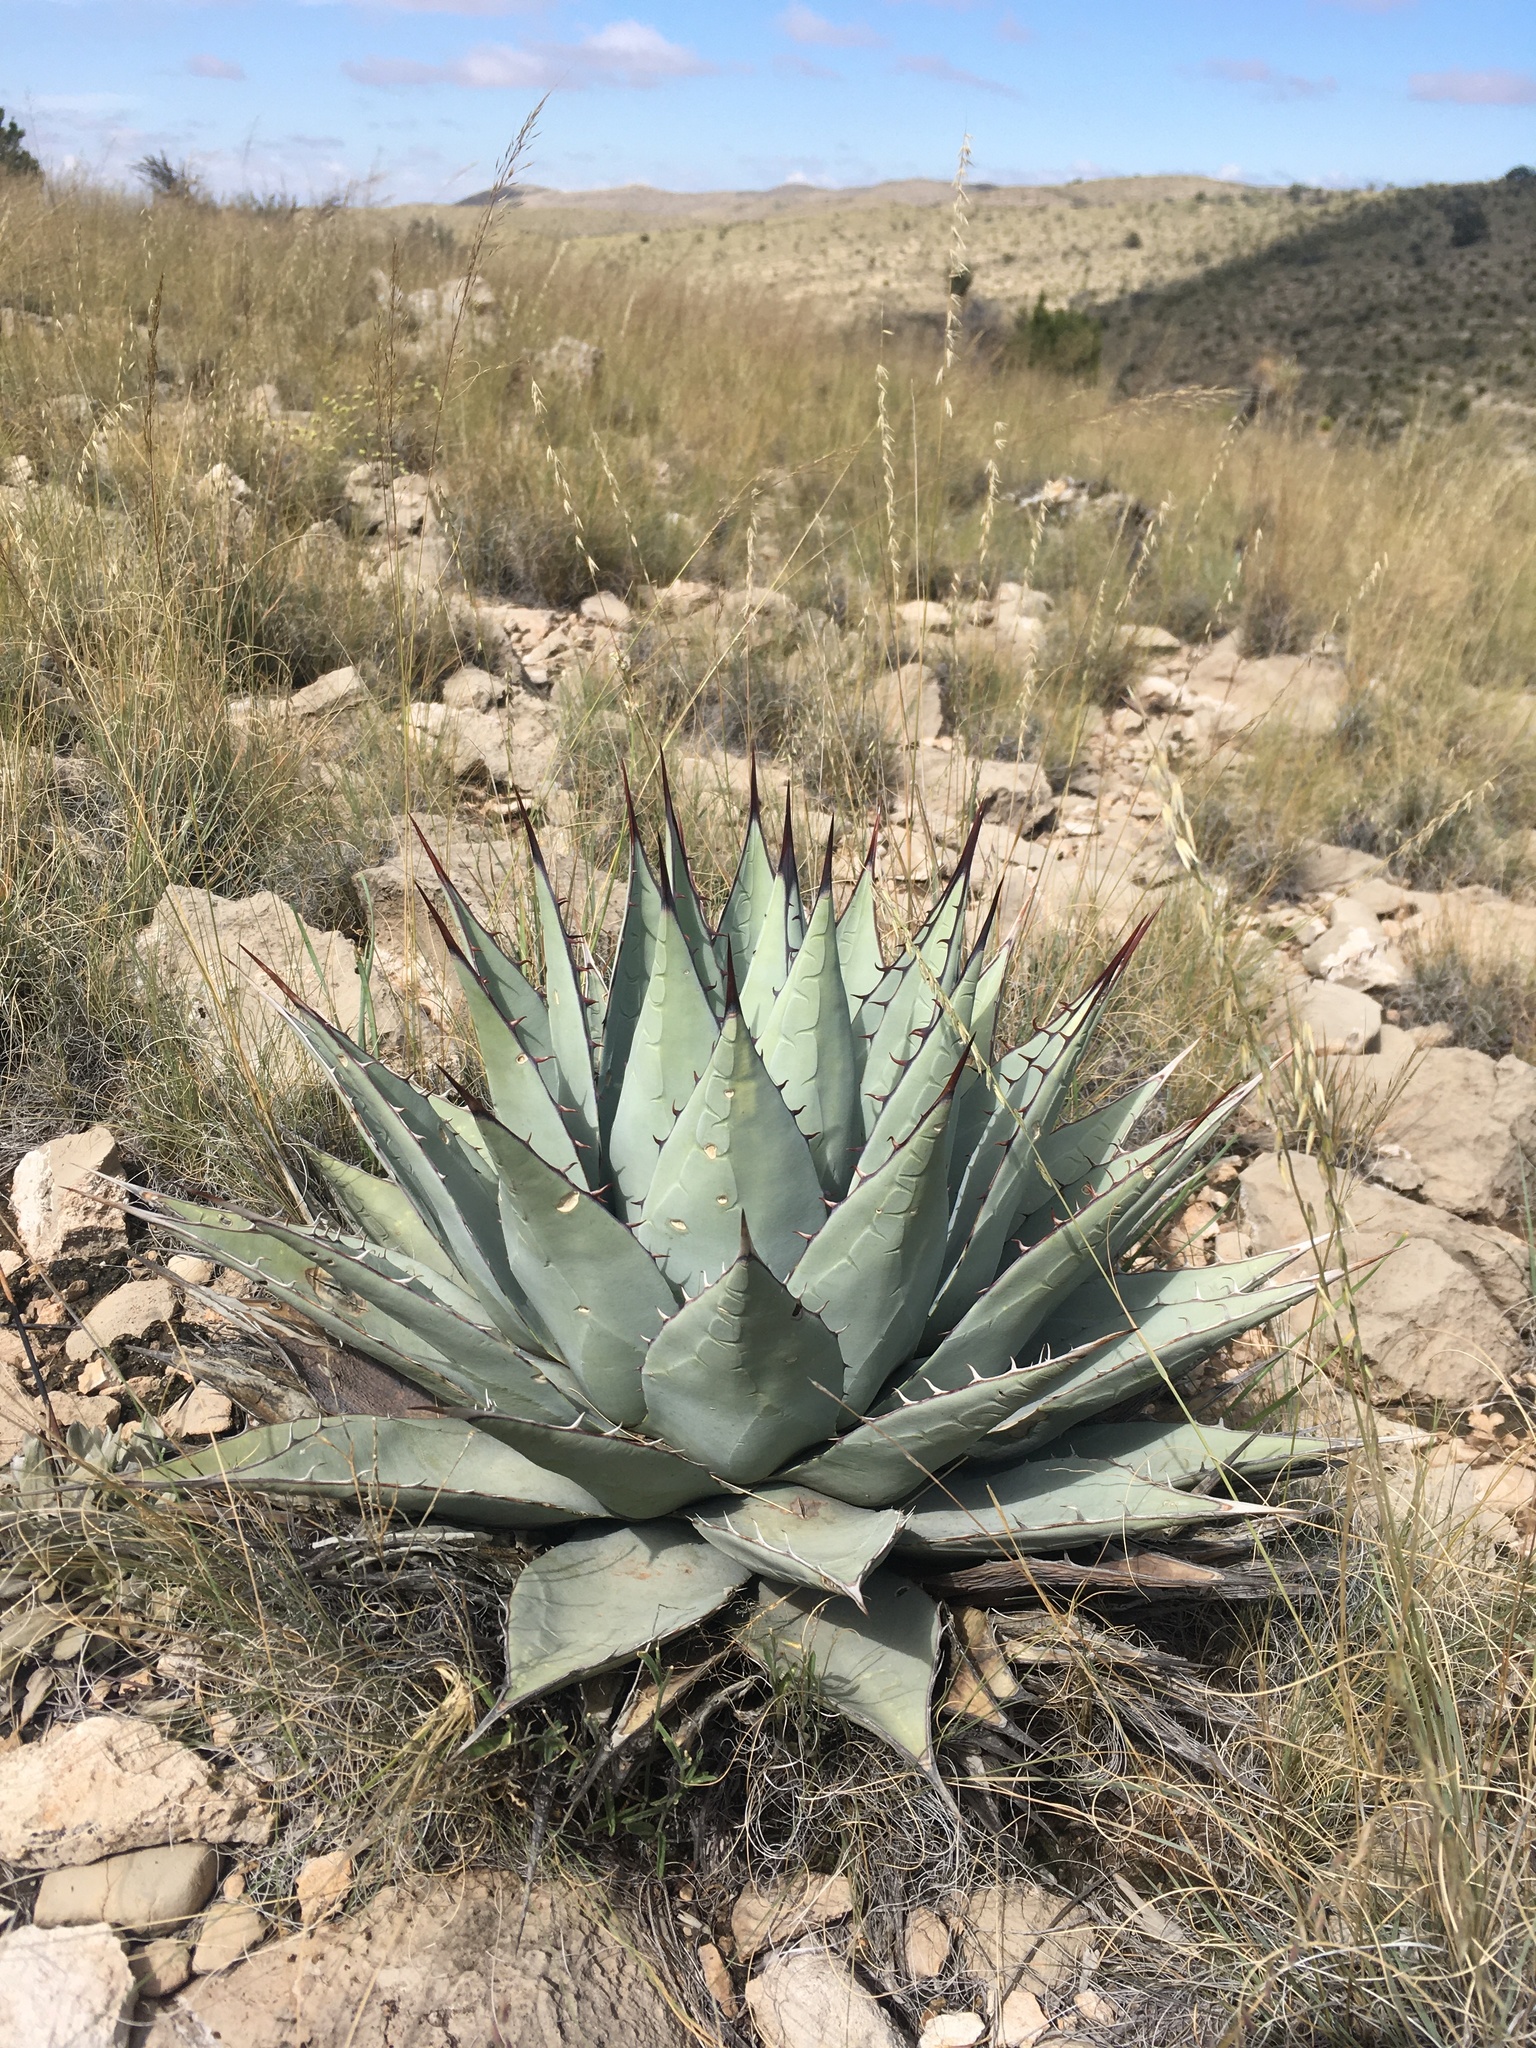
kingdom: Plantae
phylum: Tracheophyta
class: Liliopsida
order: Asparagales
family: Asparagaceae
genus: Agave
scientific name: Agave parryi
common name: Parry's agave
